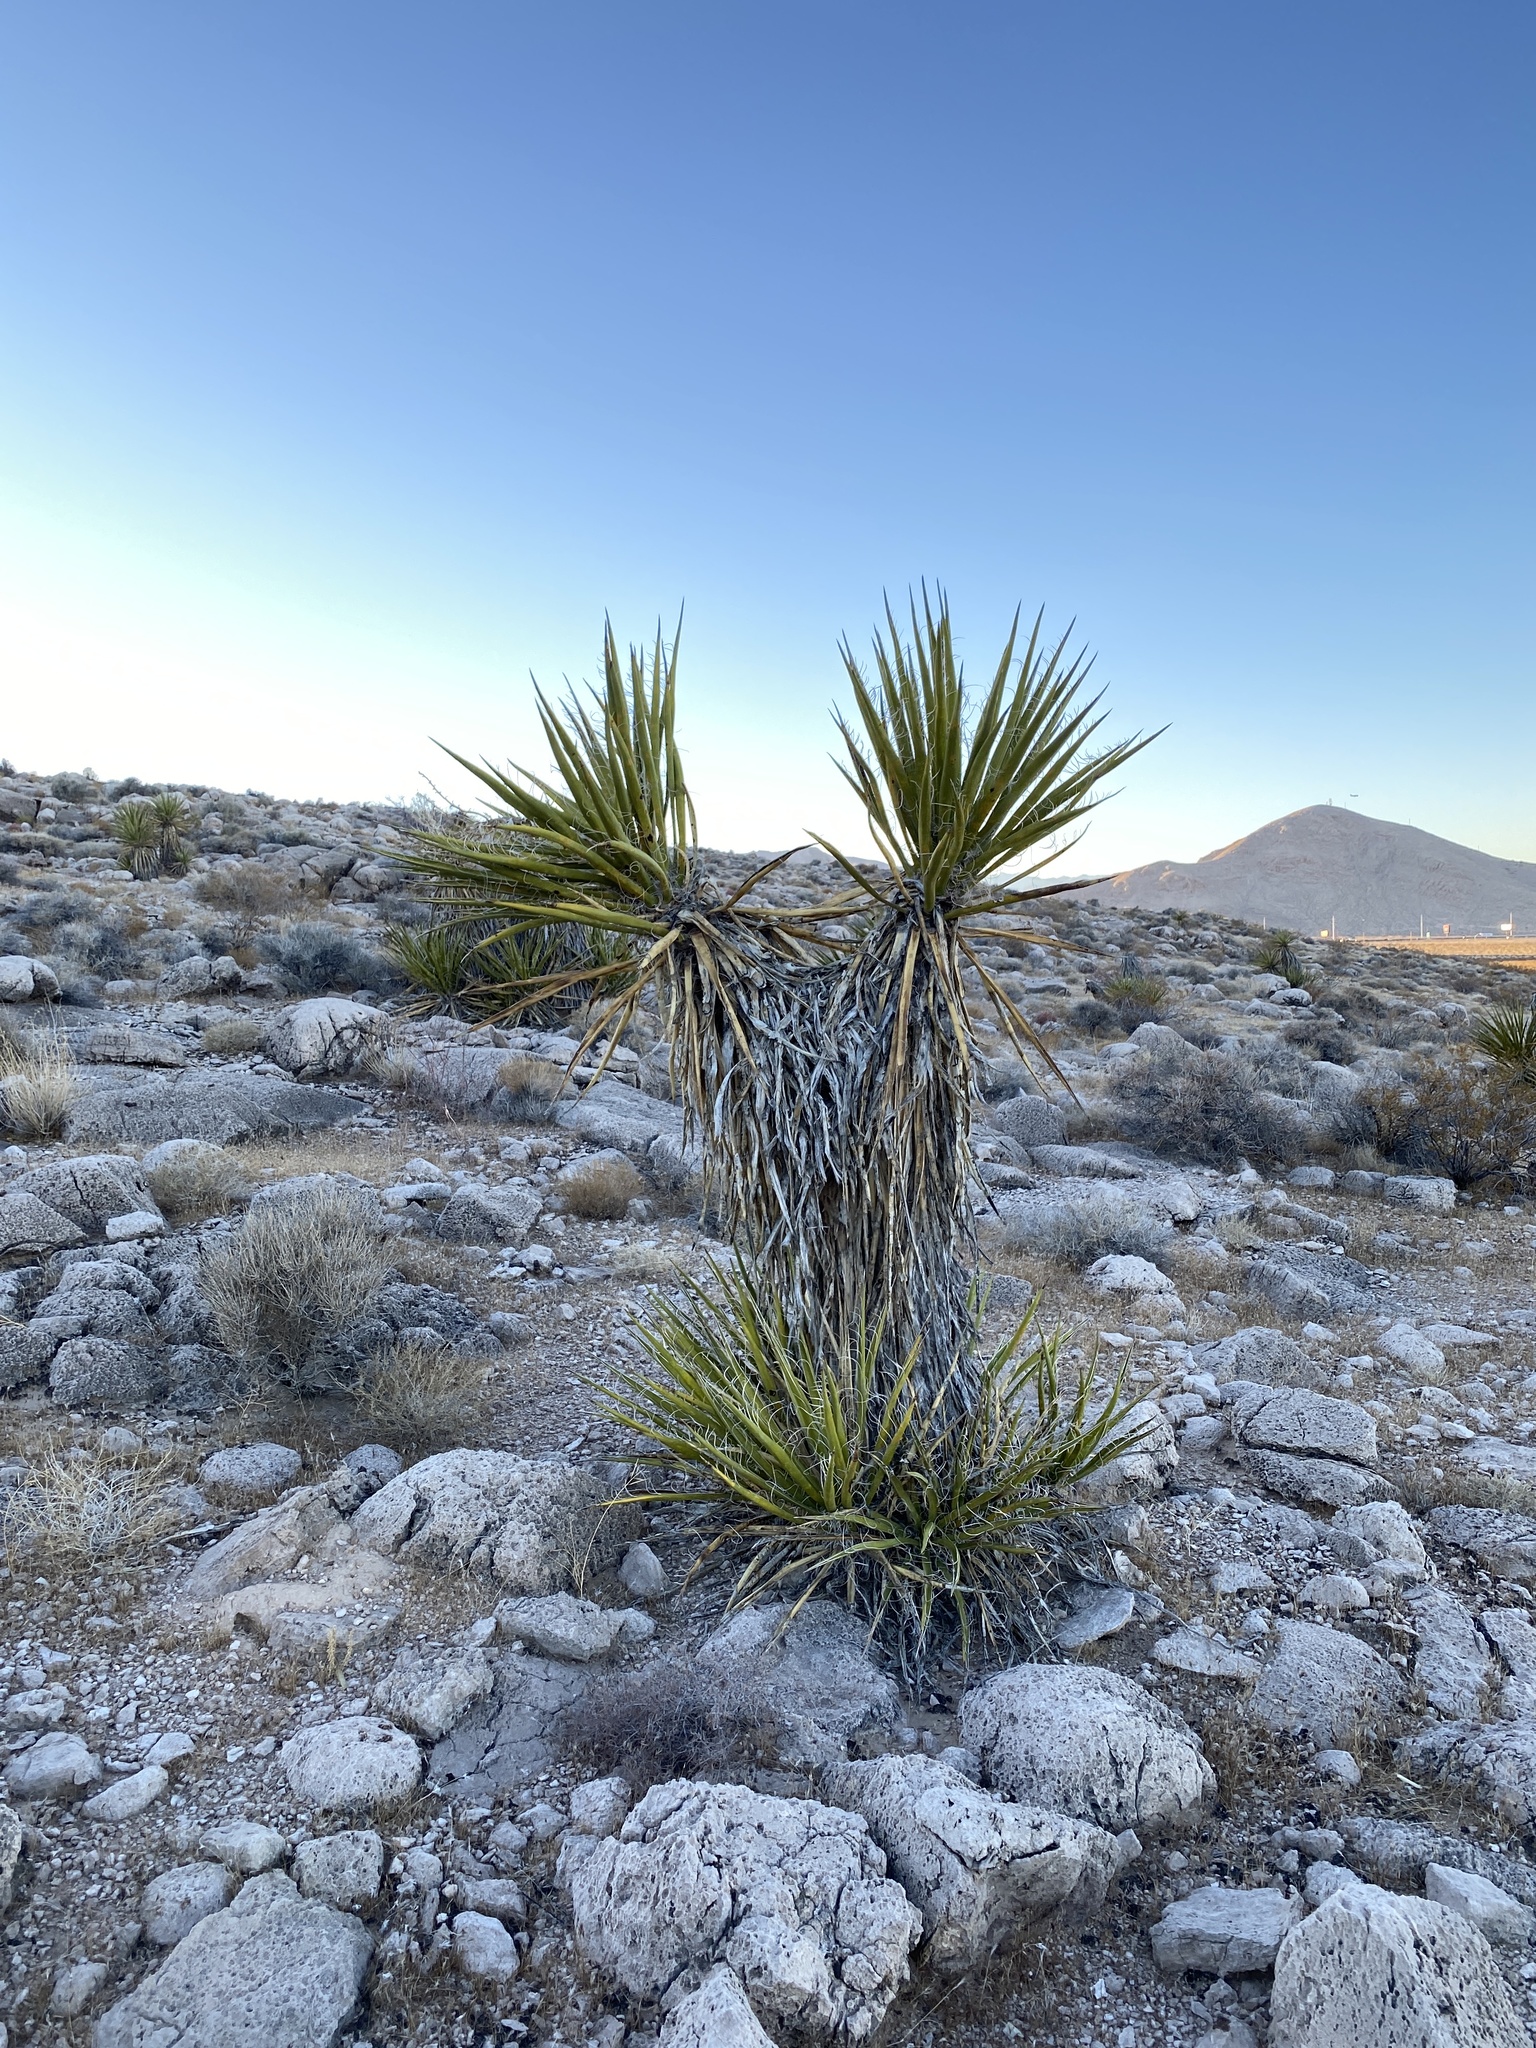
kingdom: Plantae
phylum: Tracheophyta
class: Liliopsida
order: Asparagales
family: Asparagaceae
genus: Yucca
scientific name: Yucca schidigera
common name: Mojave yucca
